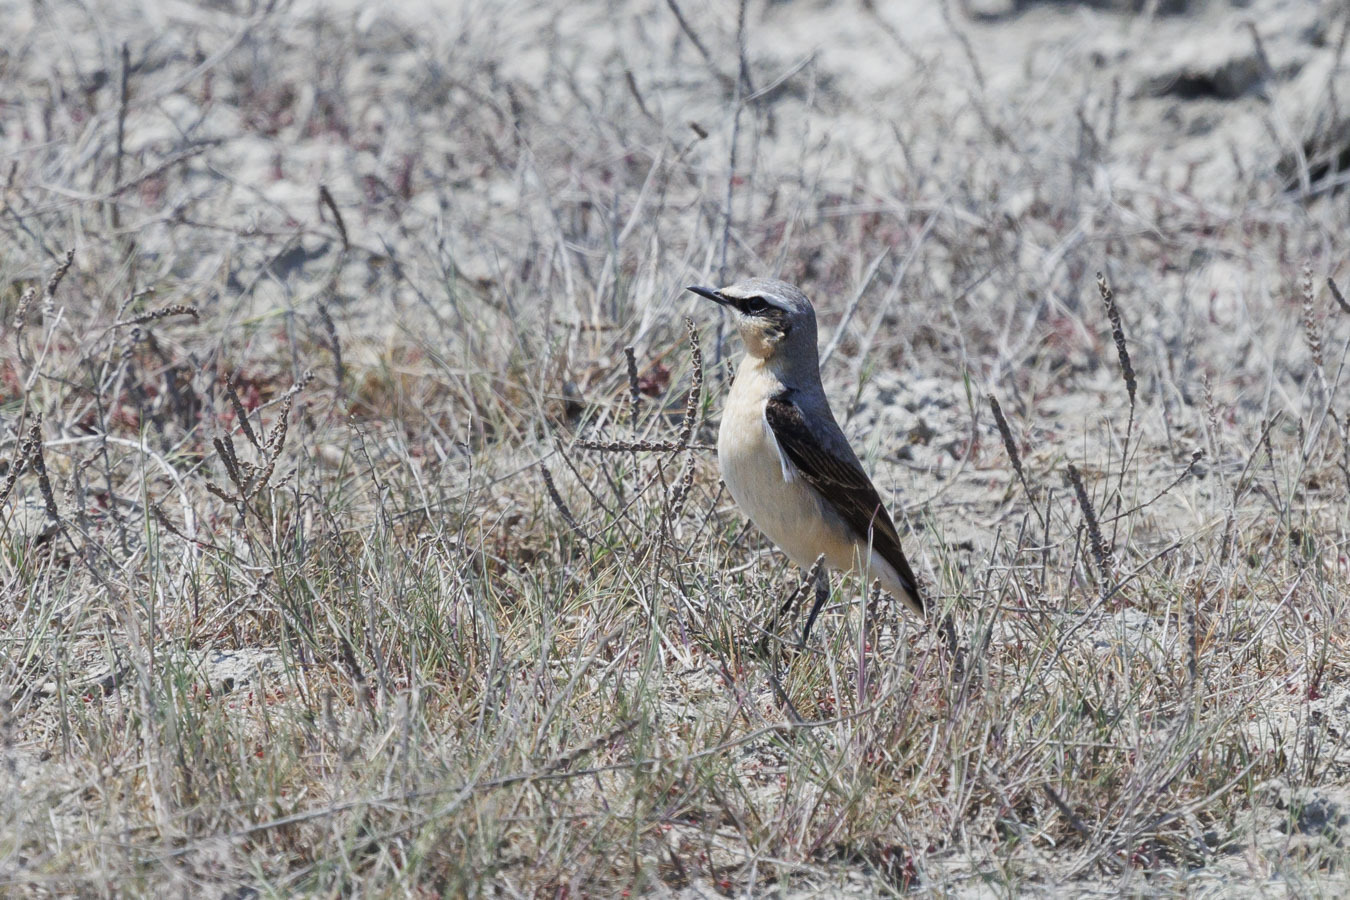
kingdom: Animalia
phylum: Chordata
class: Aves
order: Passeriformes
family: Muscicapidae
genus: Oenanthe
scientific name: Oenanthe oenanthe
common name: Northern wheatear
